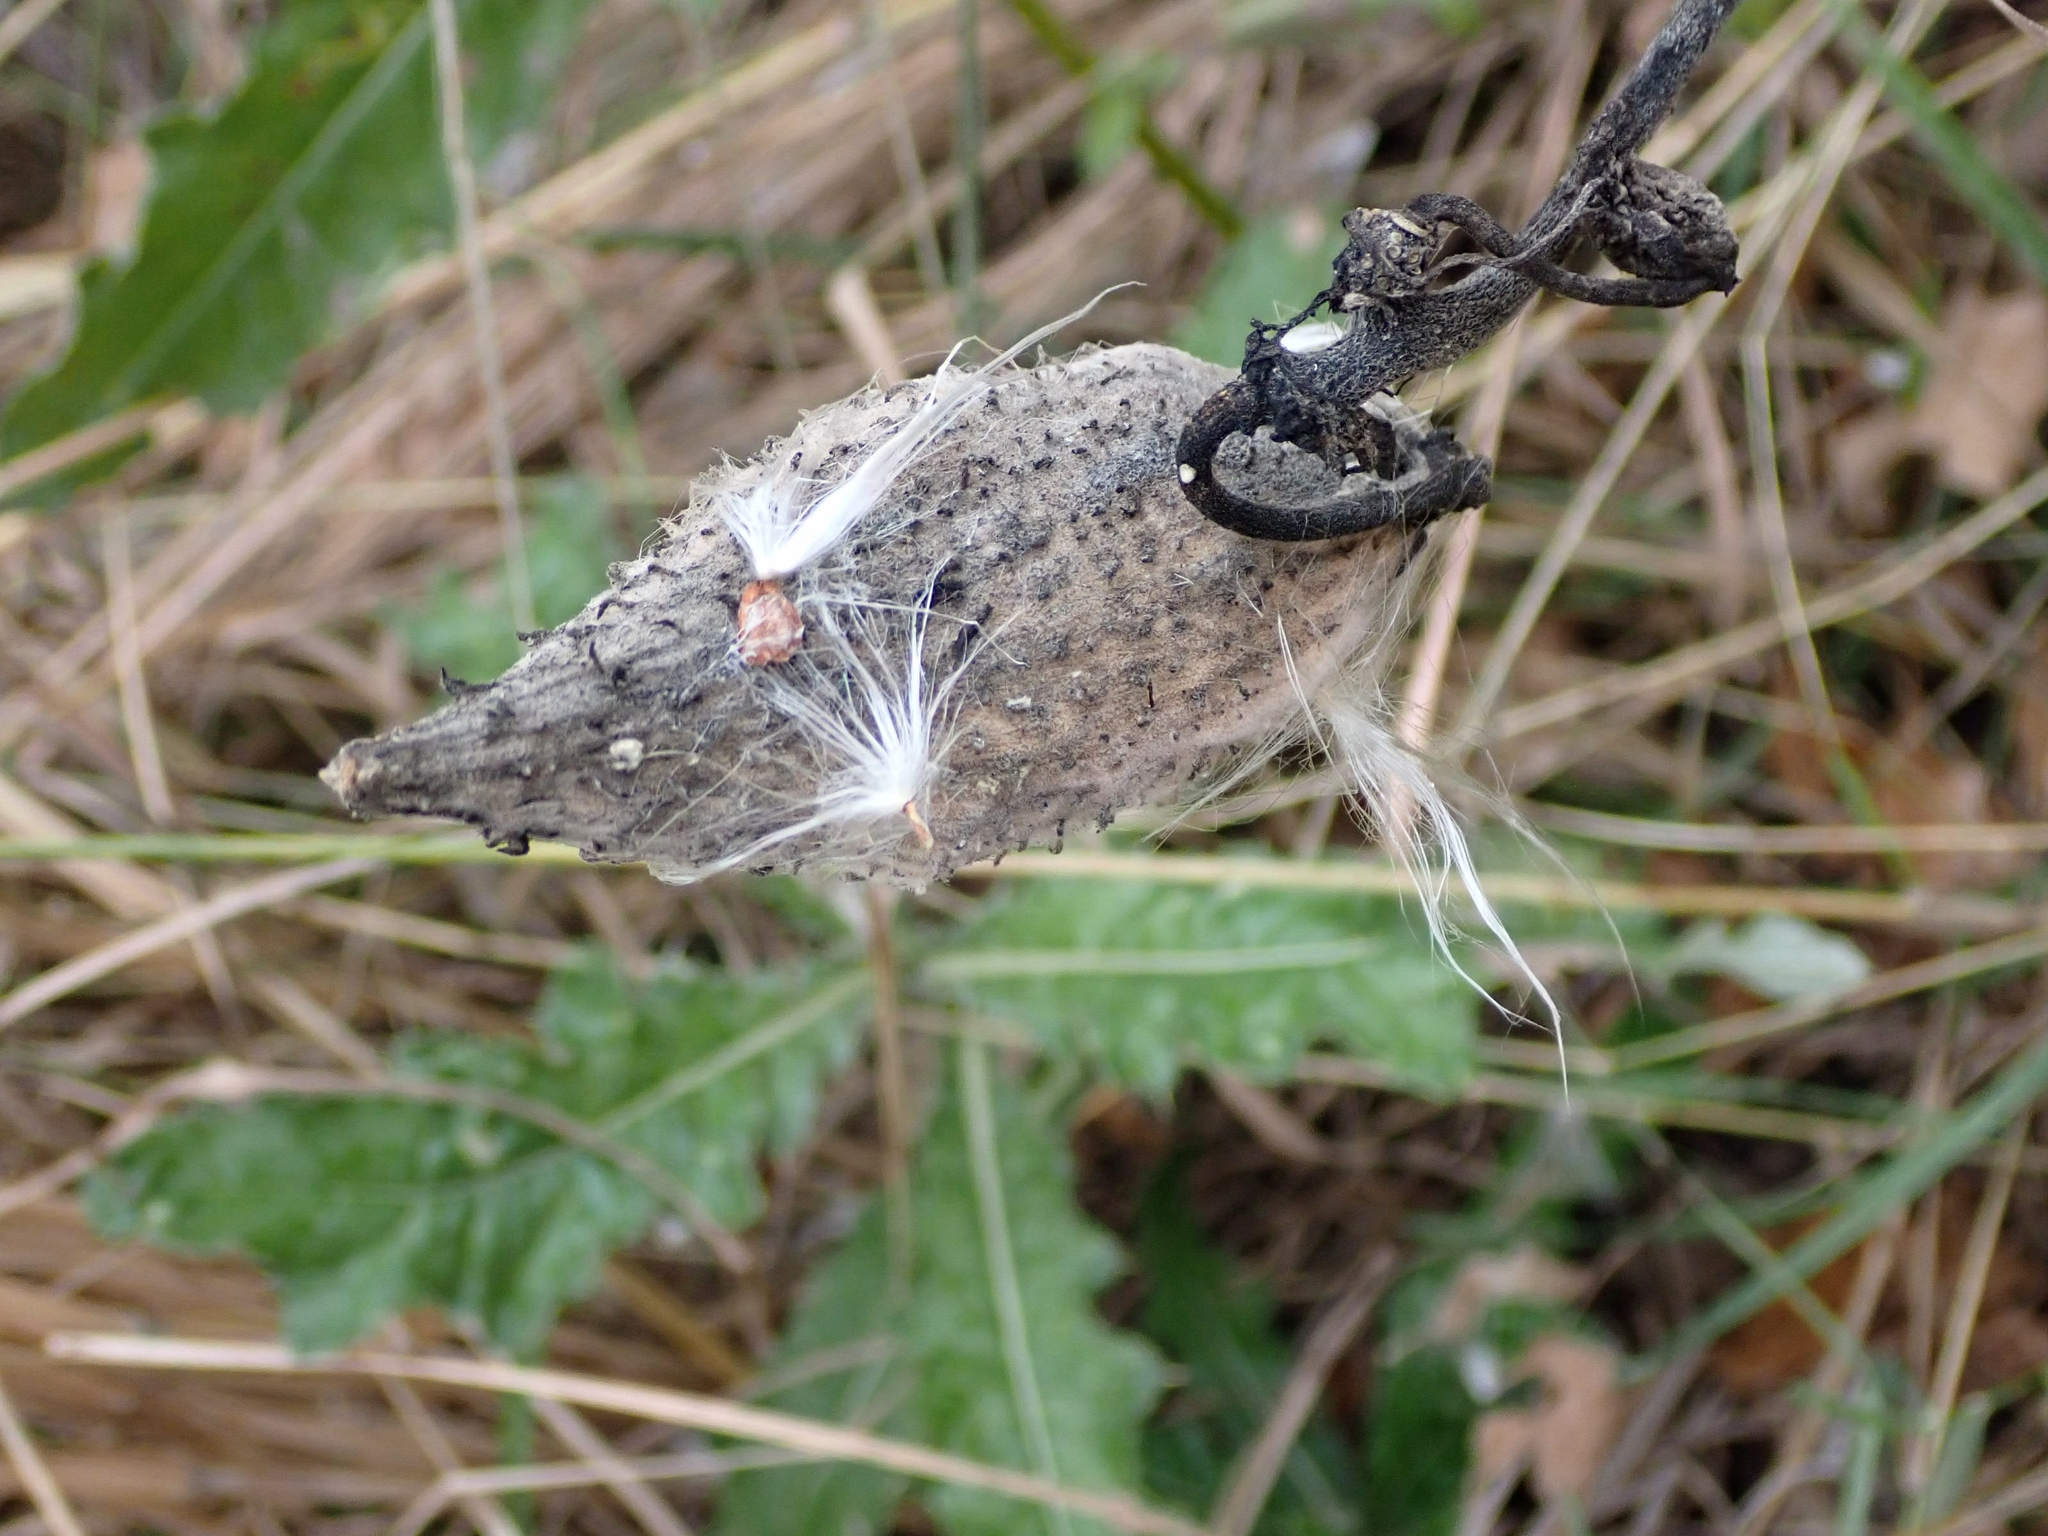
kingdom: Plantae
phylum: Tracheophyta
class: Magnoliopsida
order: Gentianales
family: Apocynaceae
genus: Asclepias
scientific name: Asclepias syriaca
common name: Common milkweed
